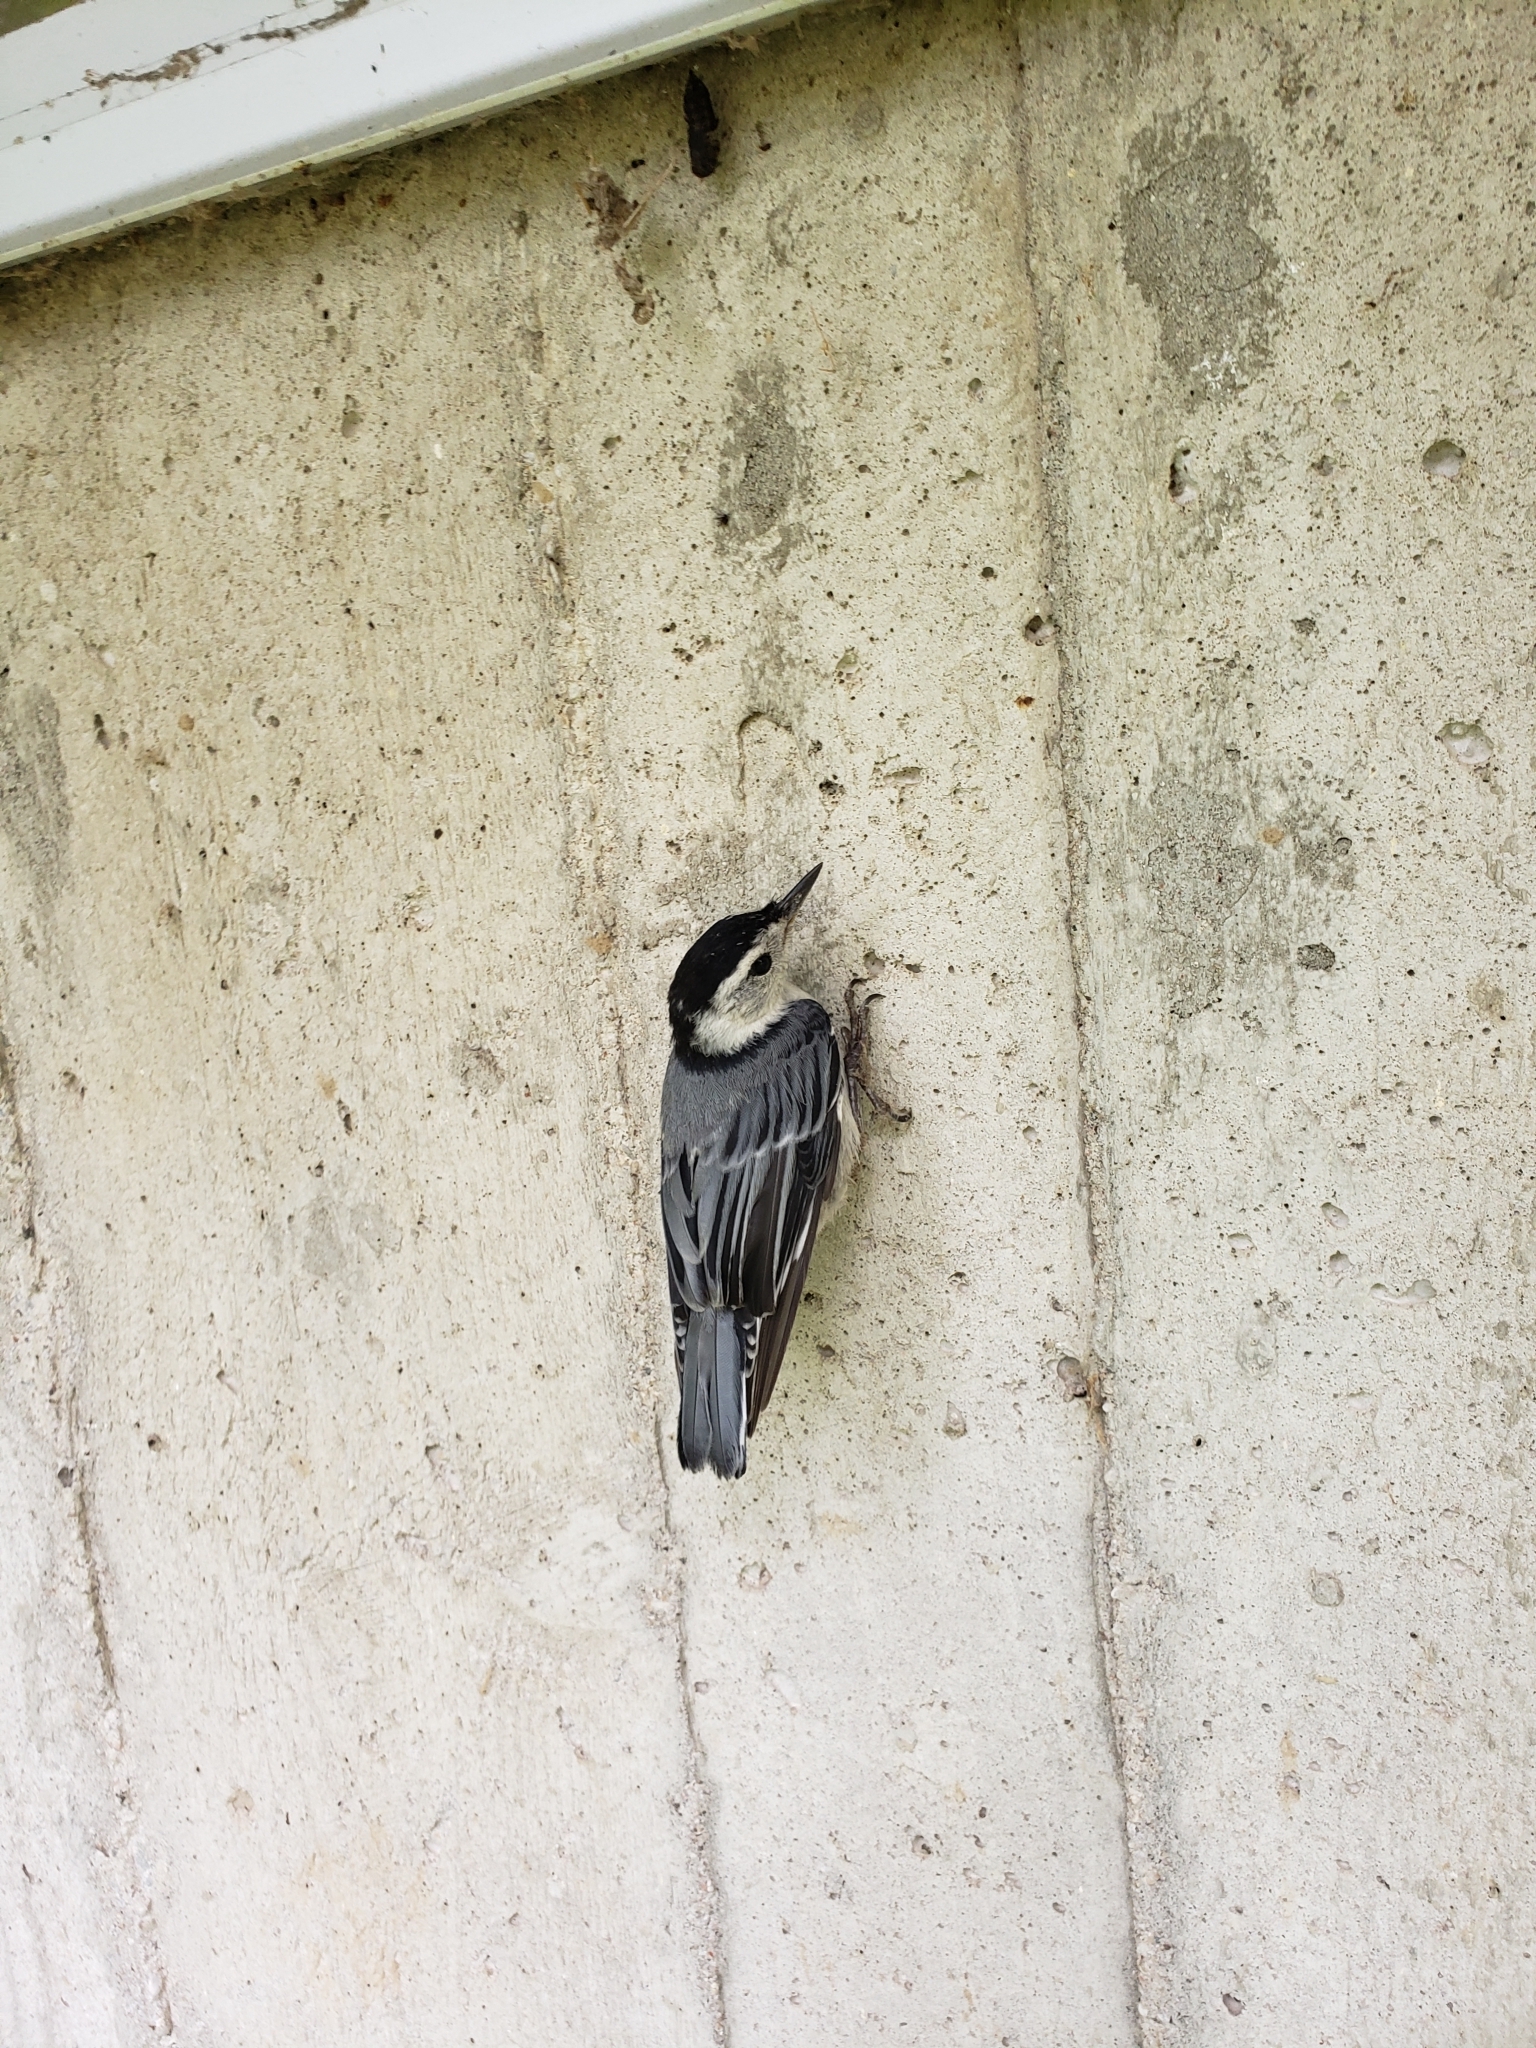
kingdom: Animalia
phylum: Chordata
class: Aves
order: Passeriformes
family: Sittidae
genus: Sitta
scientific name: Sitta carolinensis
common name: White-breasted nuthatch
